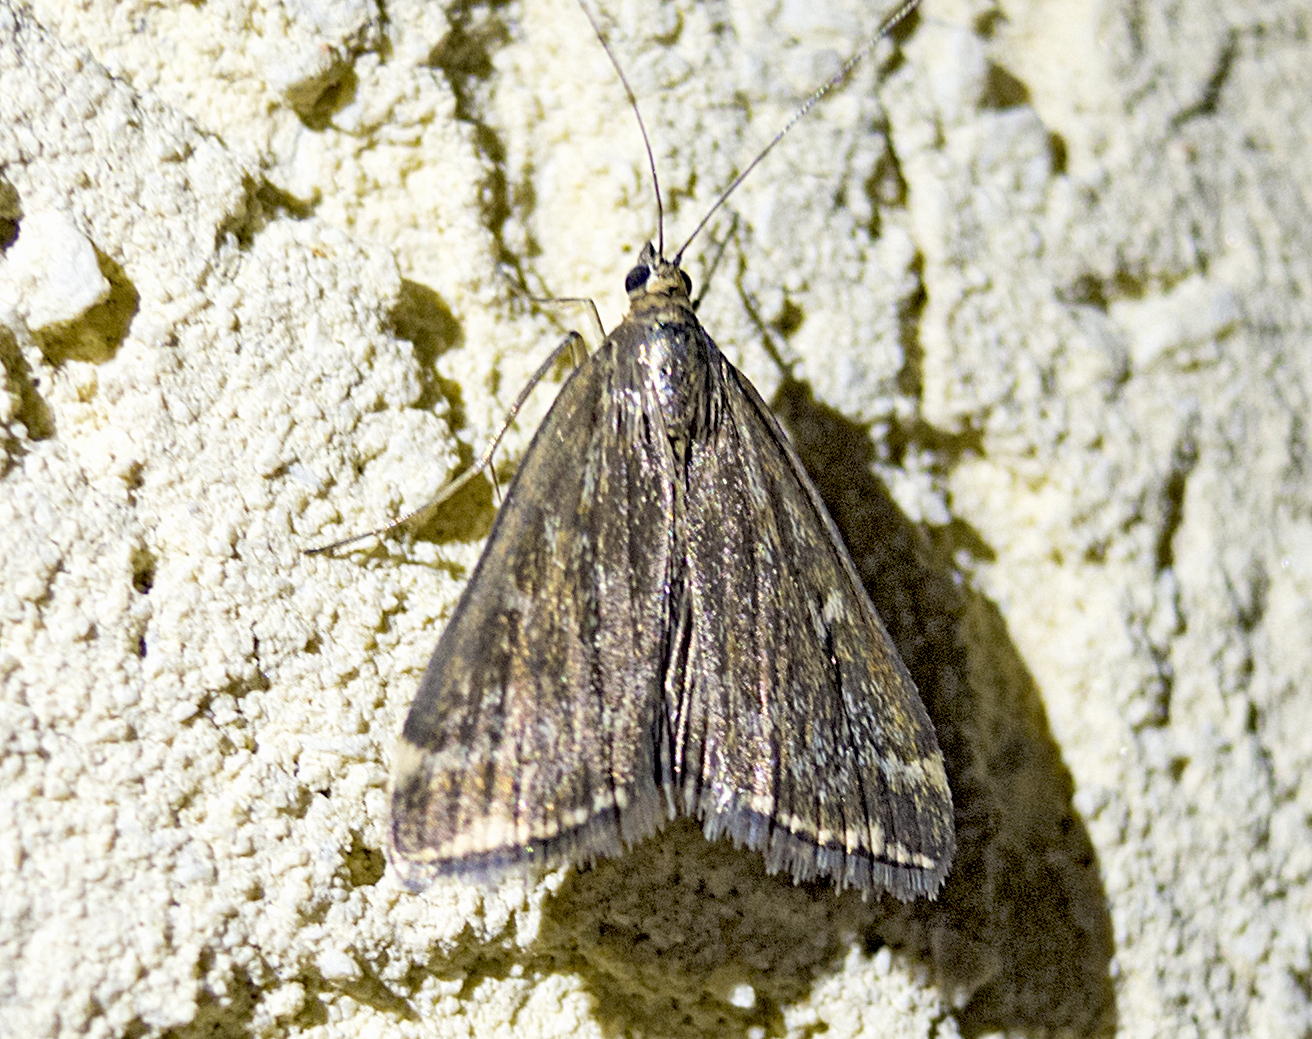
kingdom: Animalia
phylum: Arthropoda
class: Insecta
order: Lepidoptera
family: Crambidae
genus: Loxostege
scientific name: Loxostege sticticalis
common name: Crambid moth
